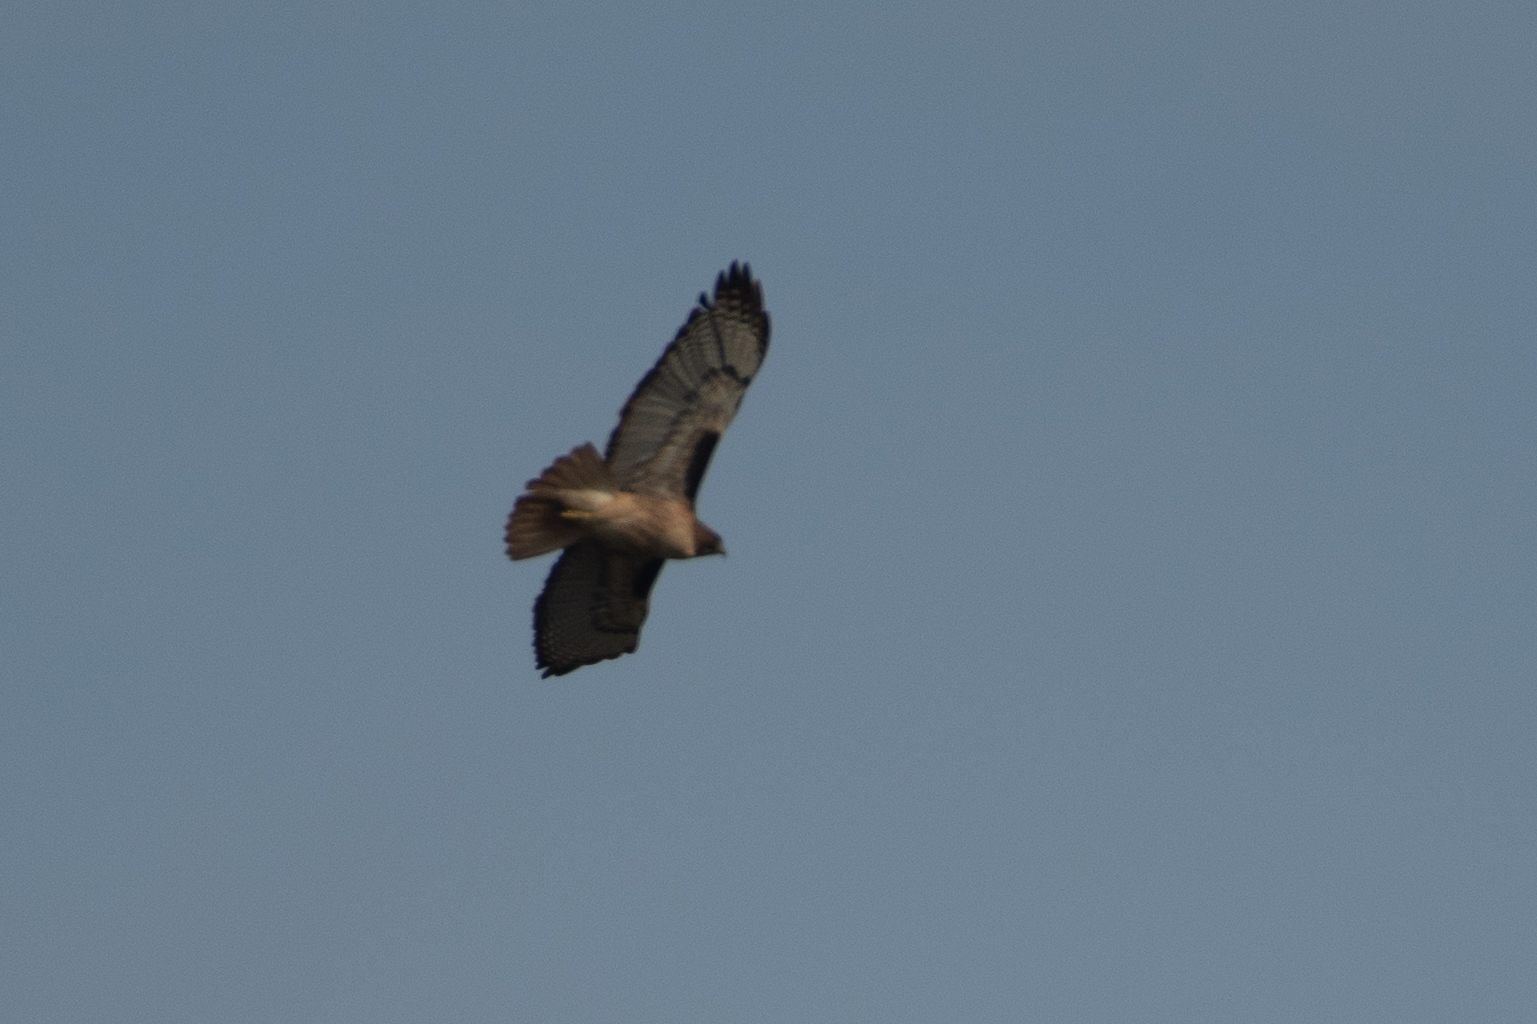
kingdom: Animalia
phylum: Chordata
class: Aves
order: Accipitriformes
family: Accipitridae
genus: Buteo
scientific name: Buteo jamaicensis
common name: Red-tailed hawk
